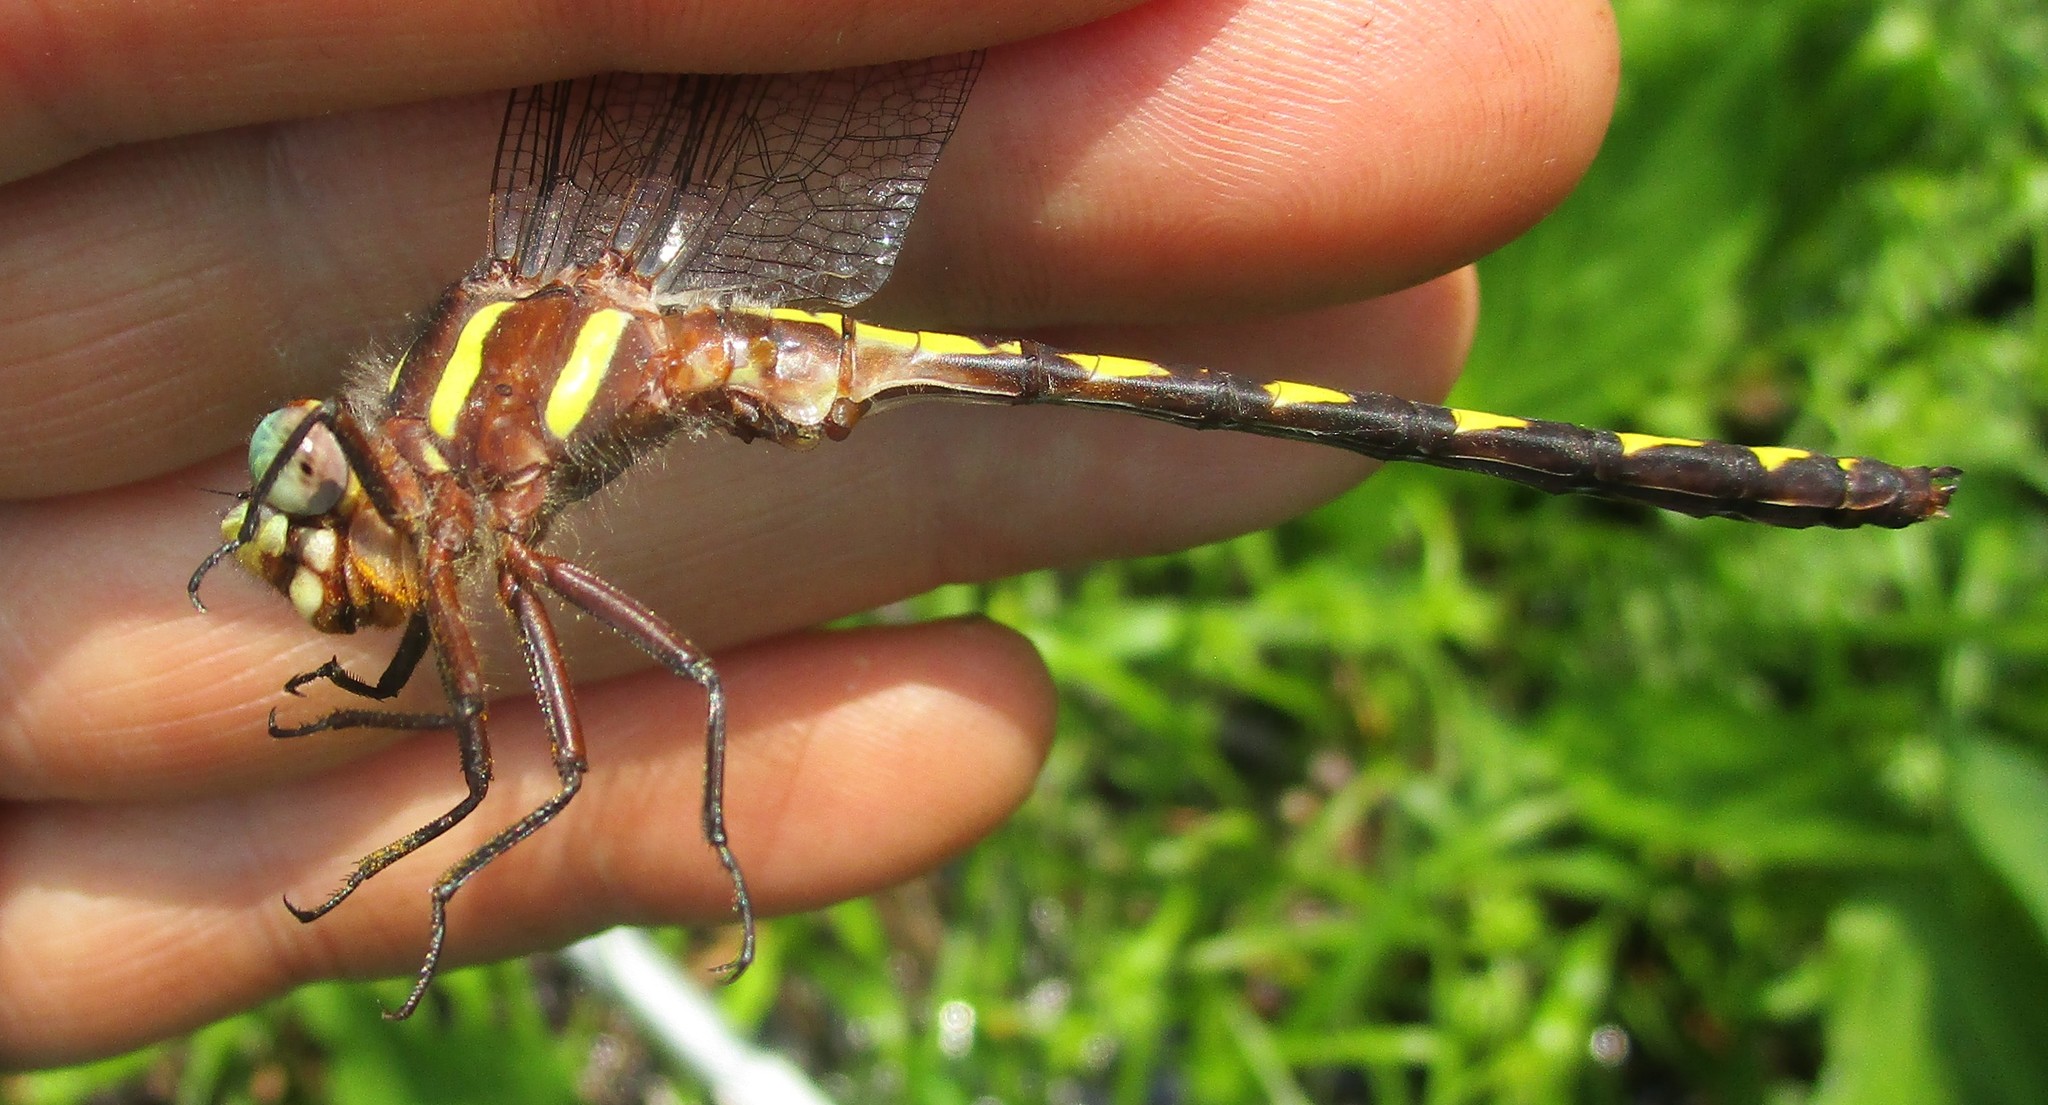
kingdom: Animalia
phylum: Arthropoda
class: Insecta
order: Odonata
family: Cordulegastridae
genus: Cordulegaster
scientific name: Cordulegaster bilineata
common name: Brown spiketail
